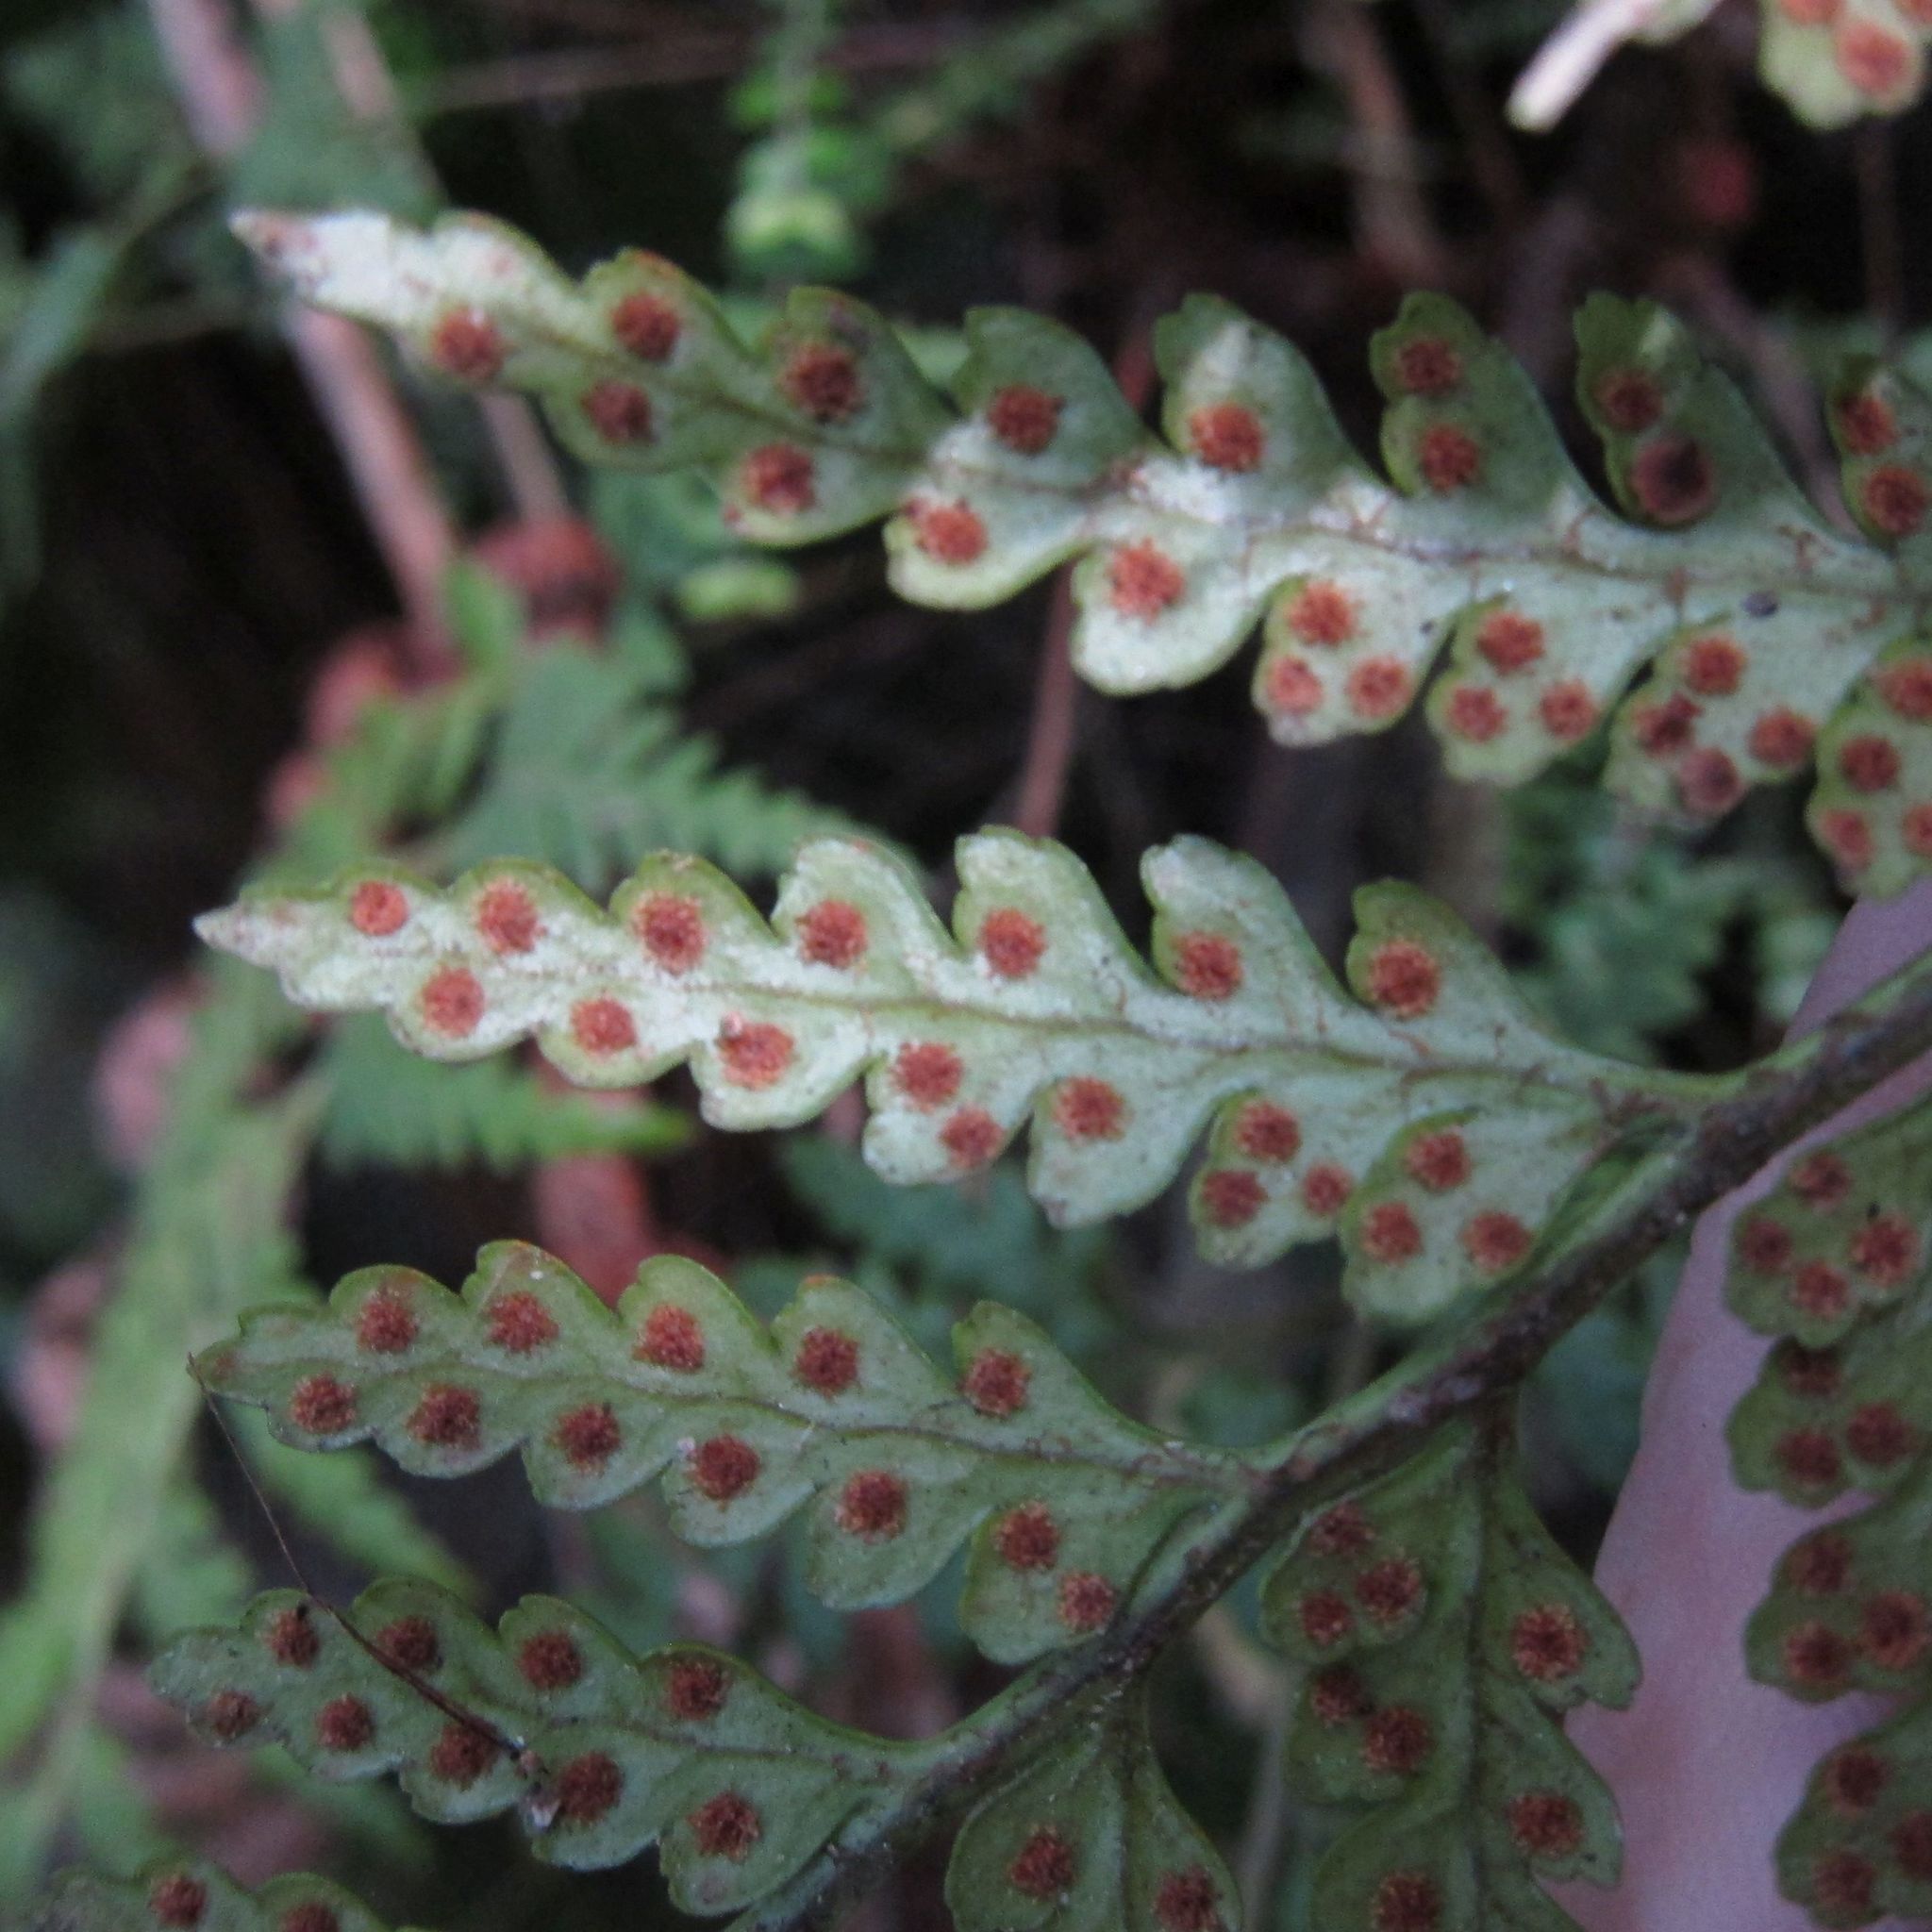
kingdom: Plantae
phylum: Tracheophyta
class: Polypodiopsida
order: Polypodiales
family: Dryopteridaceae
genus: Rumohra
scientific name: Rumohra adiantiformis
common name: Leather fern
